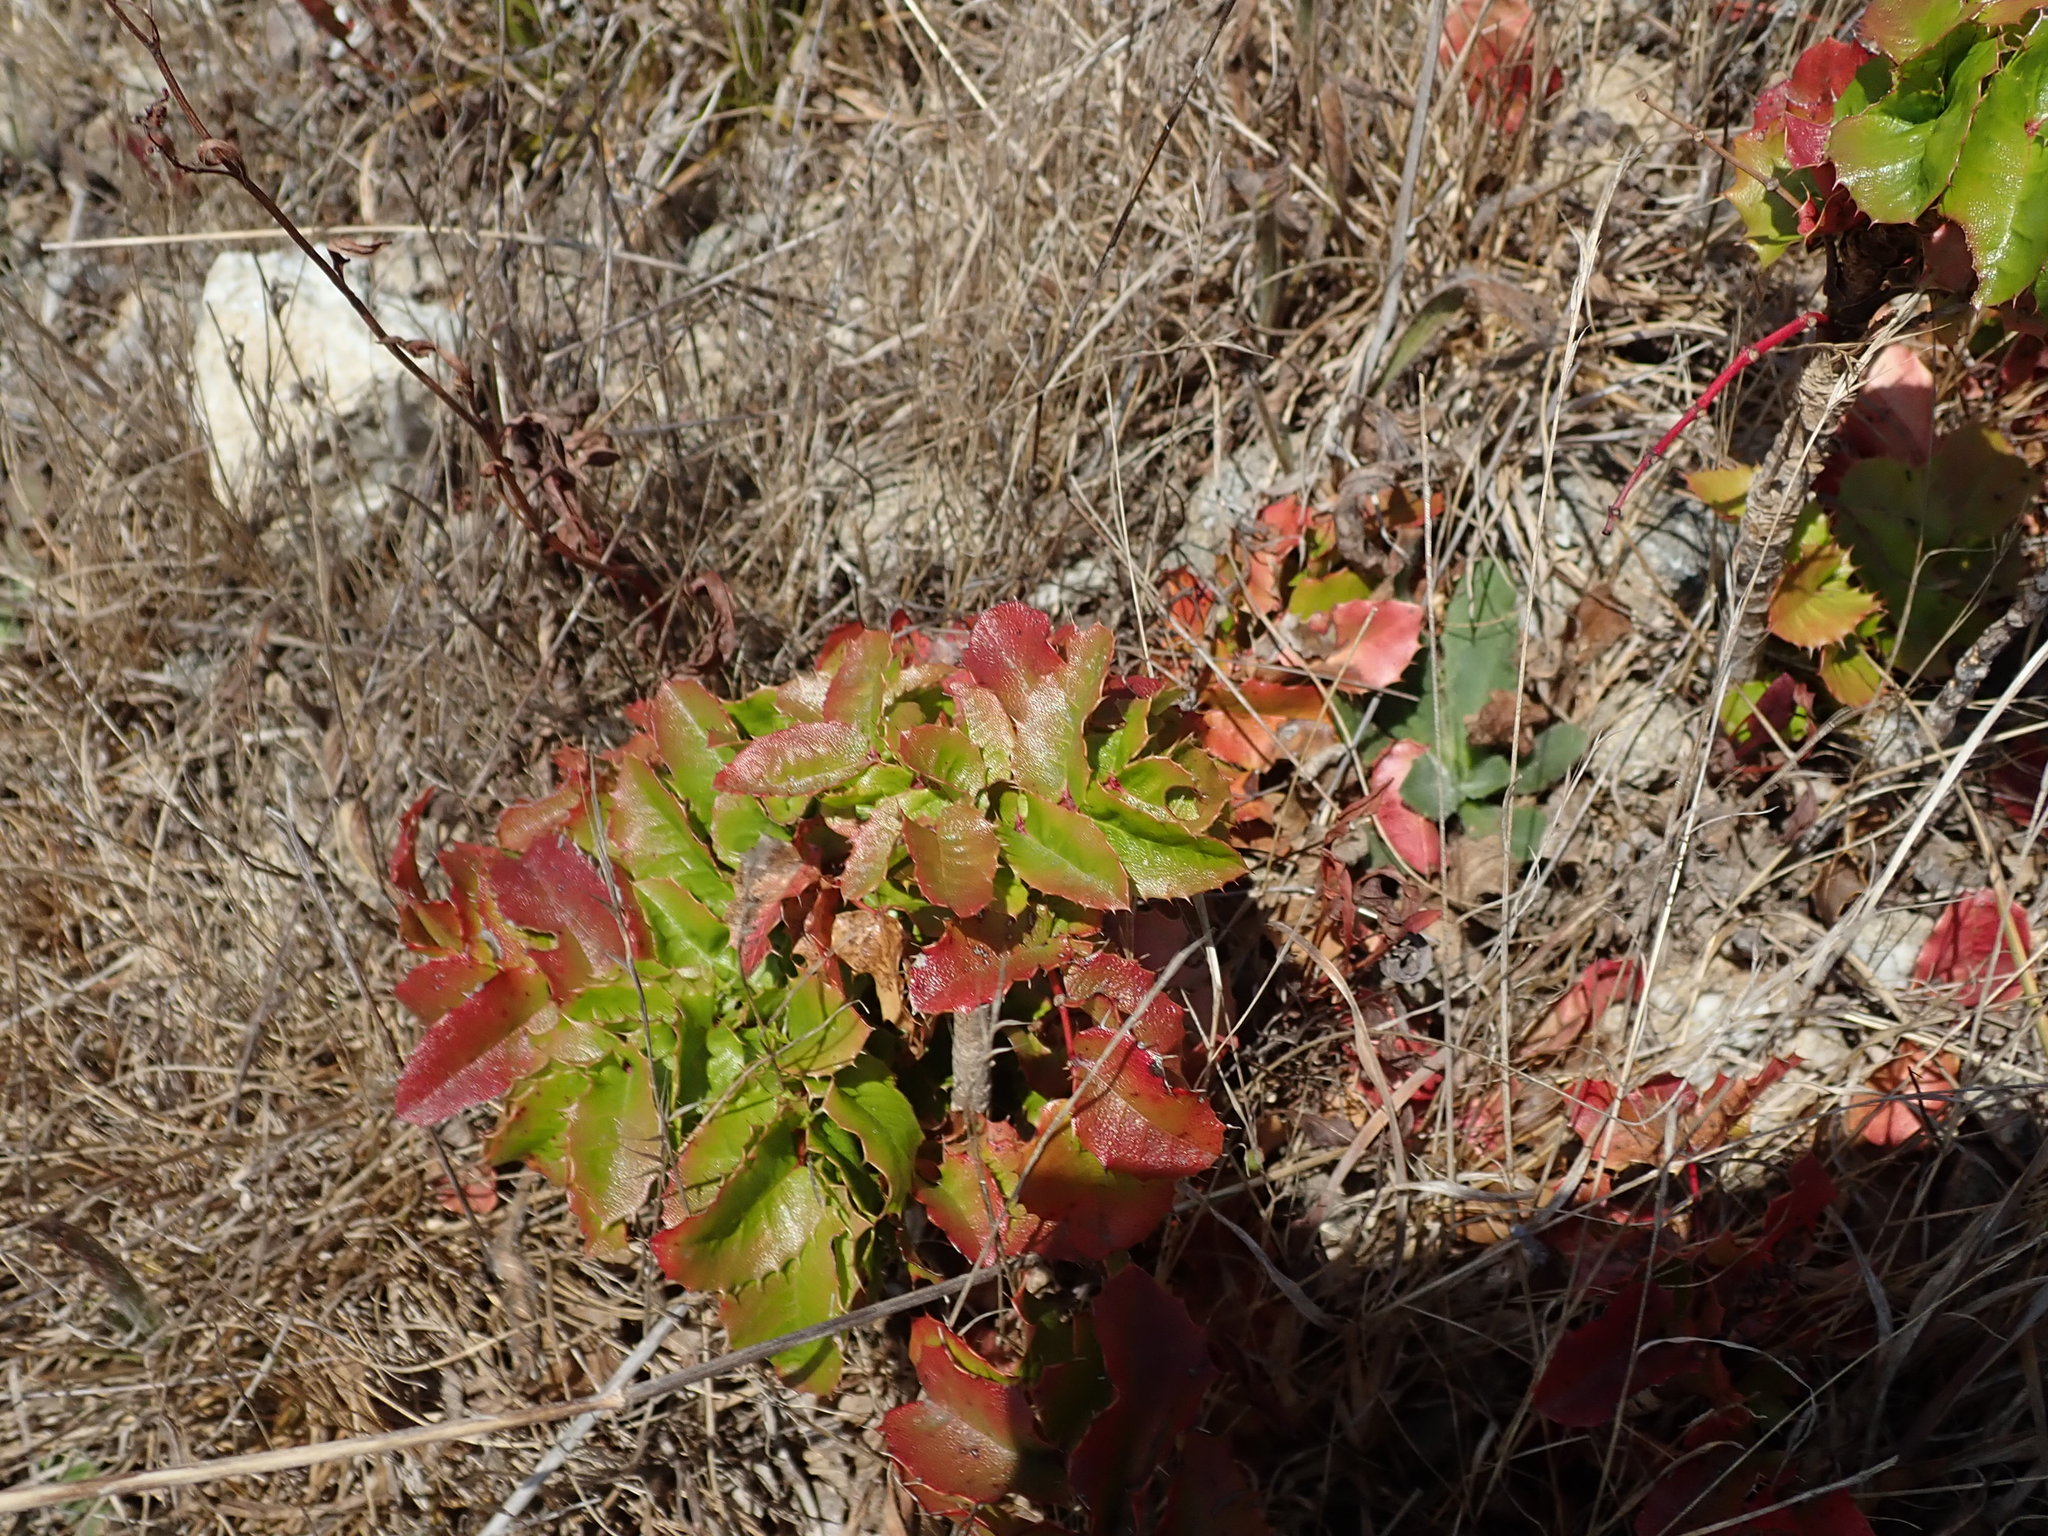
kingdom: Plantae
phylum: Tracheophyta
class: Magnoliopsida
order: Ranunculales
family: Berberidaceae
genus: Mahonia
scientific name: Mahonia
